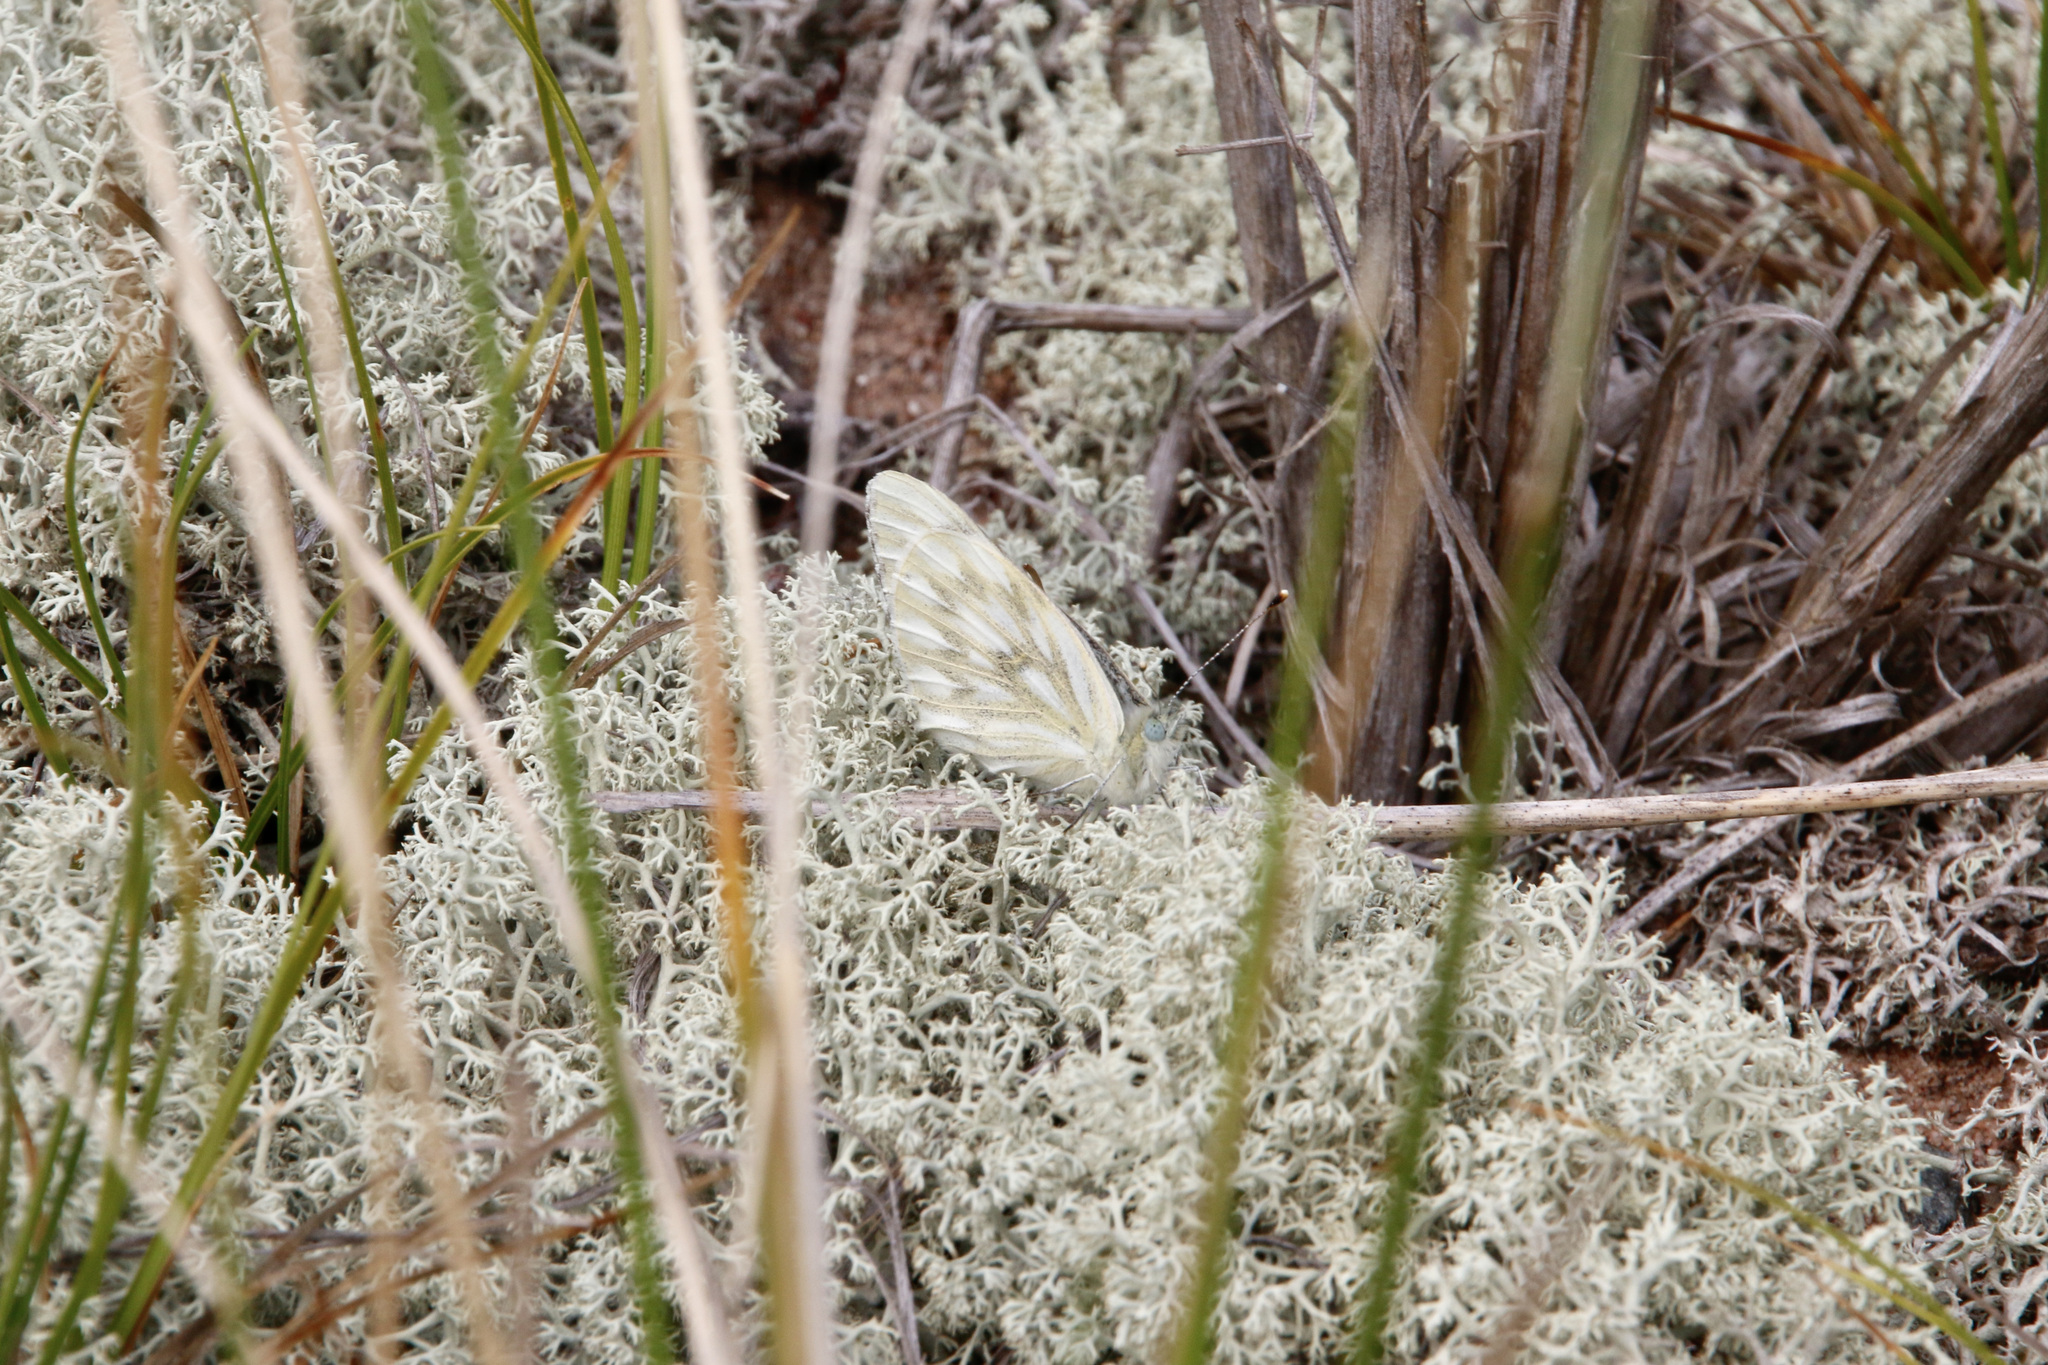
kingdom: Animalia
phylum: Arthropoda
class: Insecta
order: Lepidoptera
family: Pieridae
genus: Pontia
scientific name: Pontia occidentalis
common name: Western white
